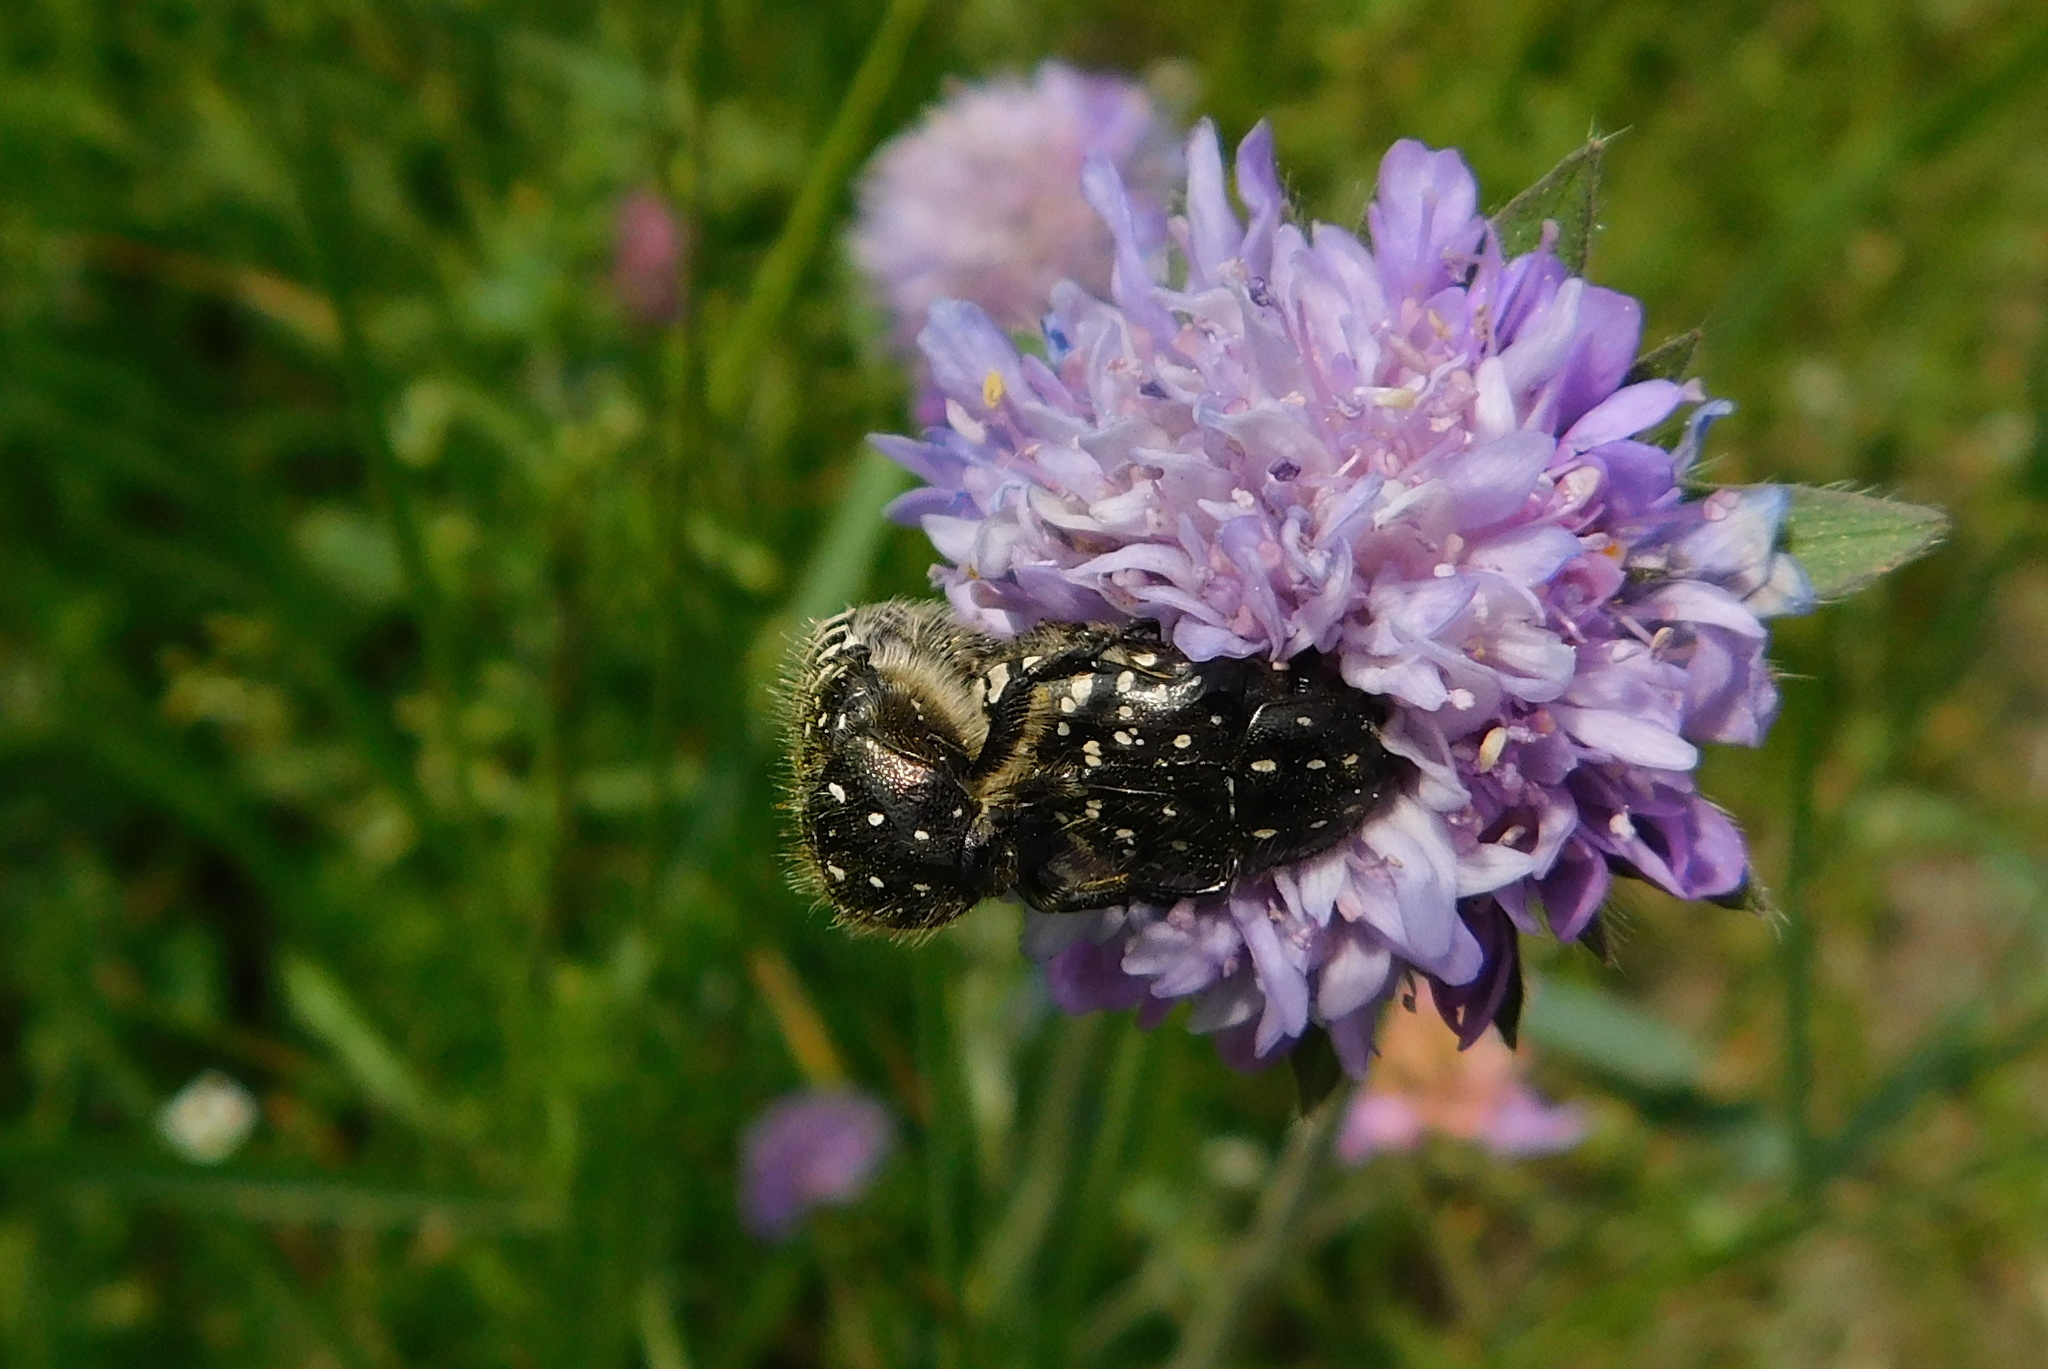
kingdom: Animalia
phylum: Arthropoda
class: Insecta
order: Coleoptera
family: Scarabaeidae
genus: Oxythyrea
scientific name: Oxythyrea funesta
